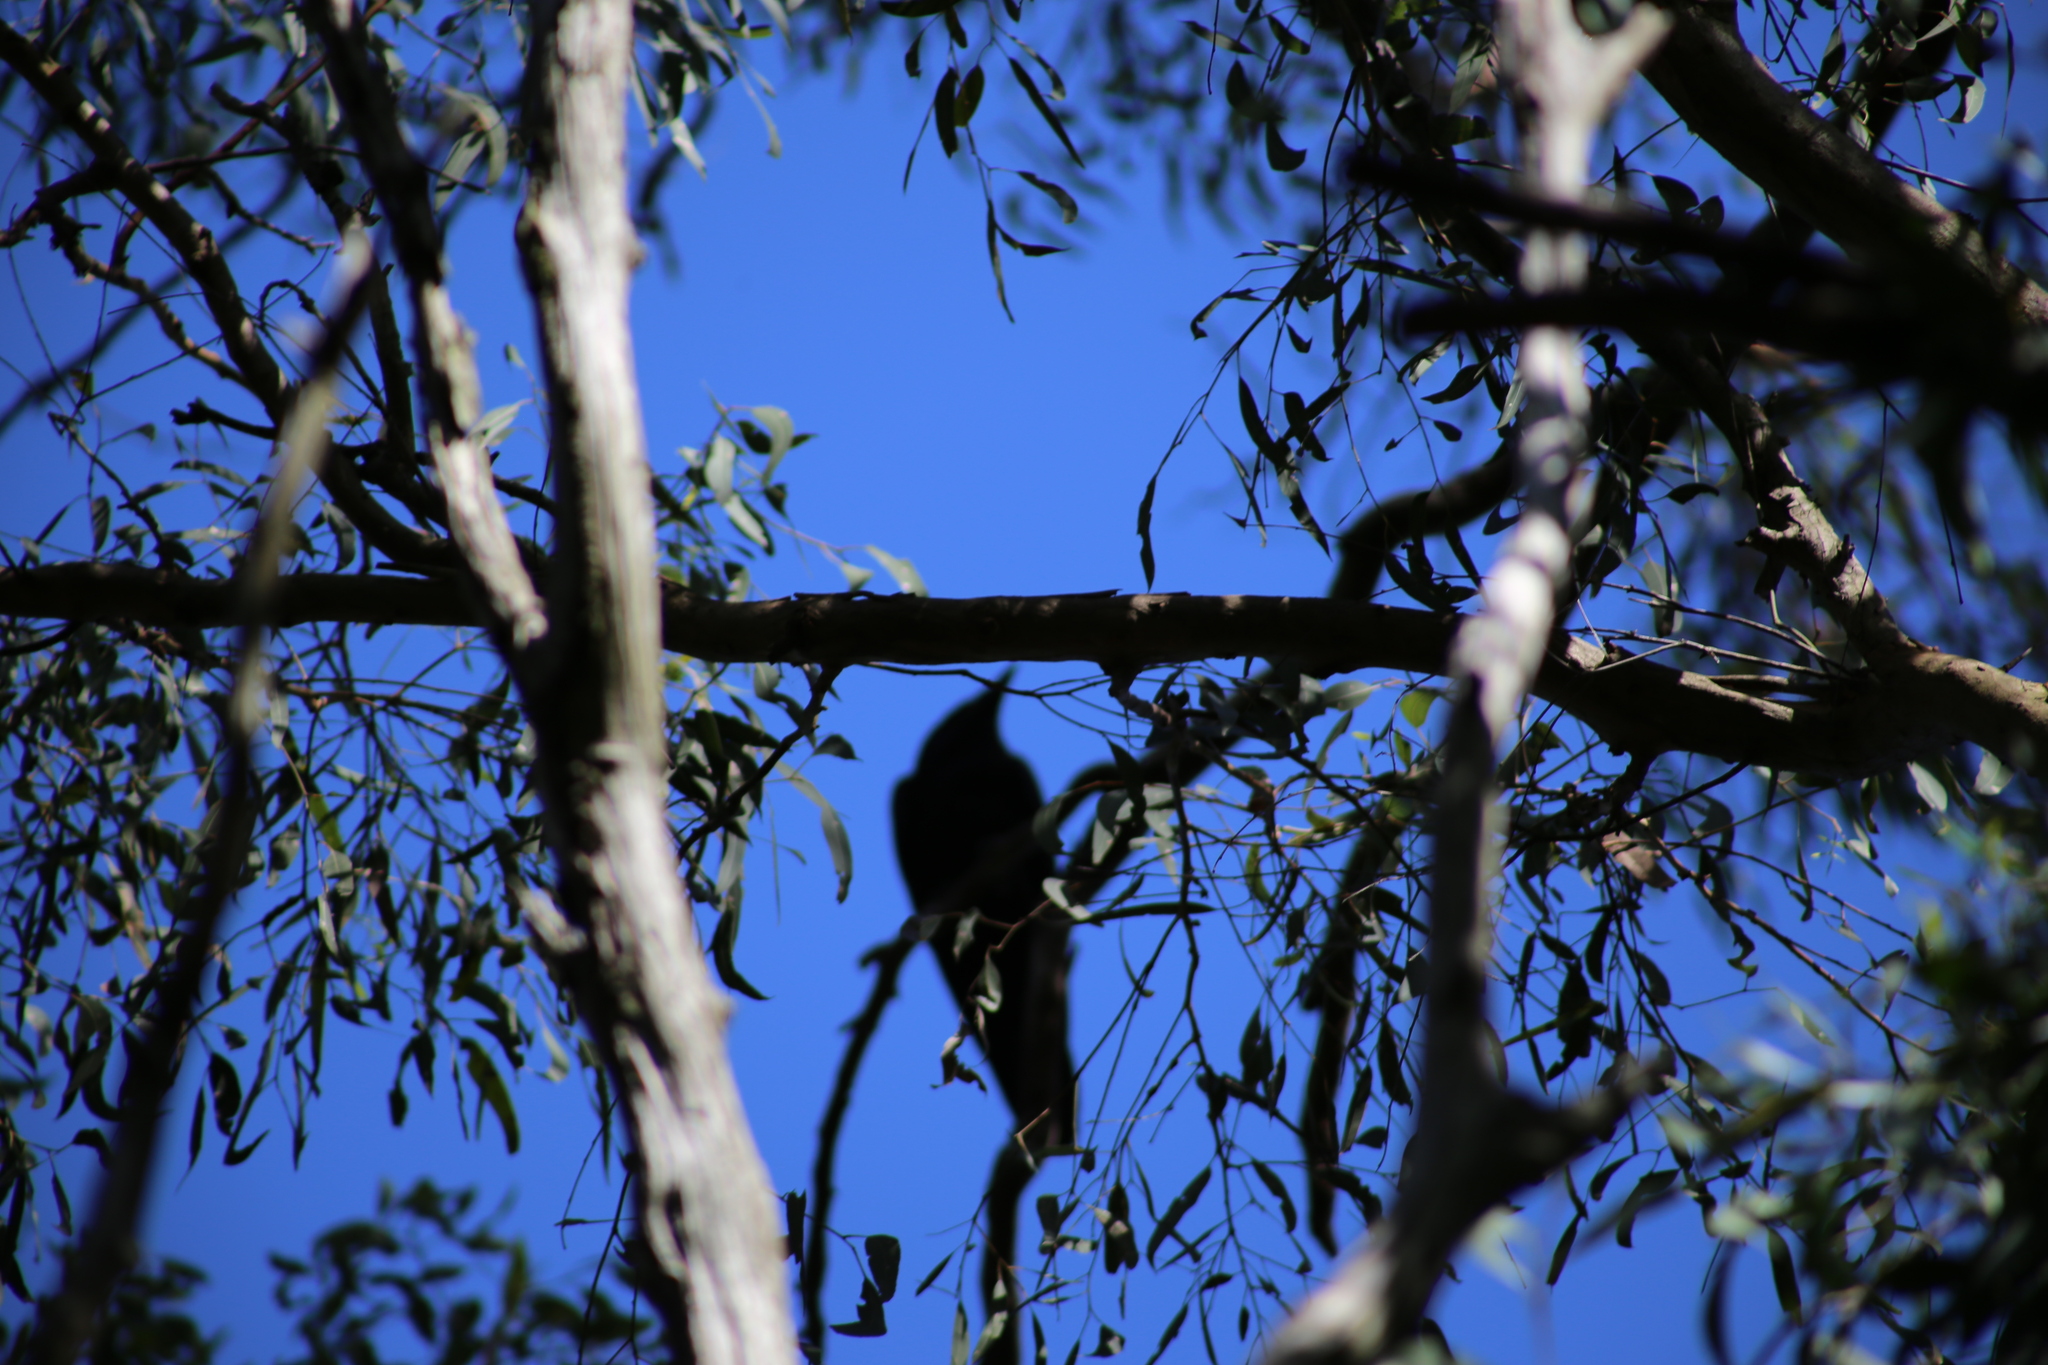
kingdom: Animalia
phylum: Chordata
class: Aves
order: Passeriformes
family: Corvidae
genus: Corvus
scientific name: Corvus orru
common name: Torresian crow
